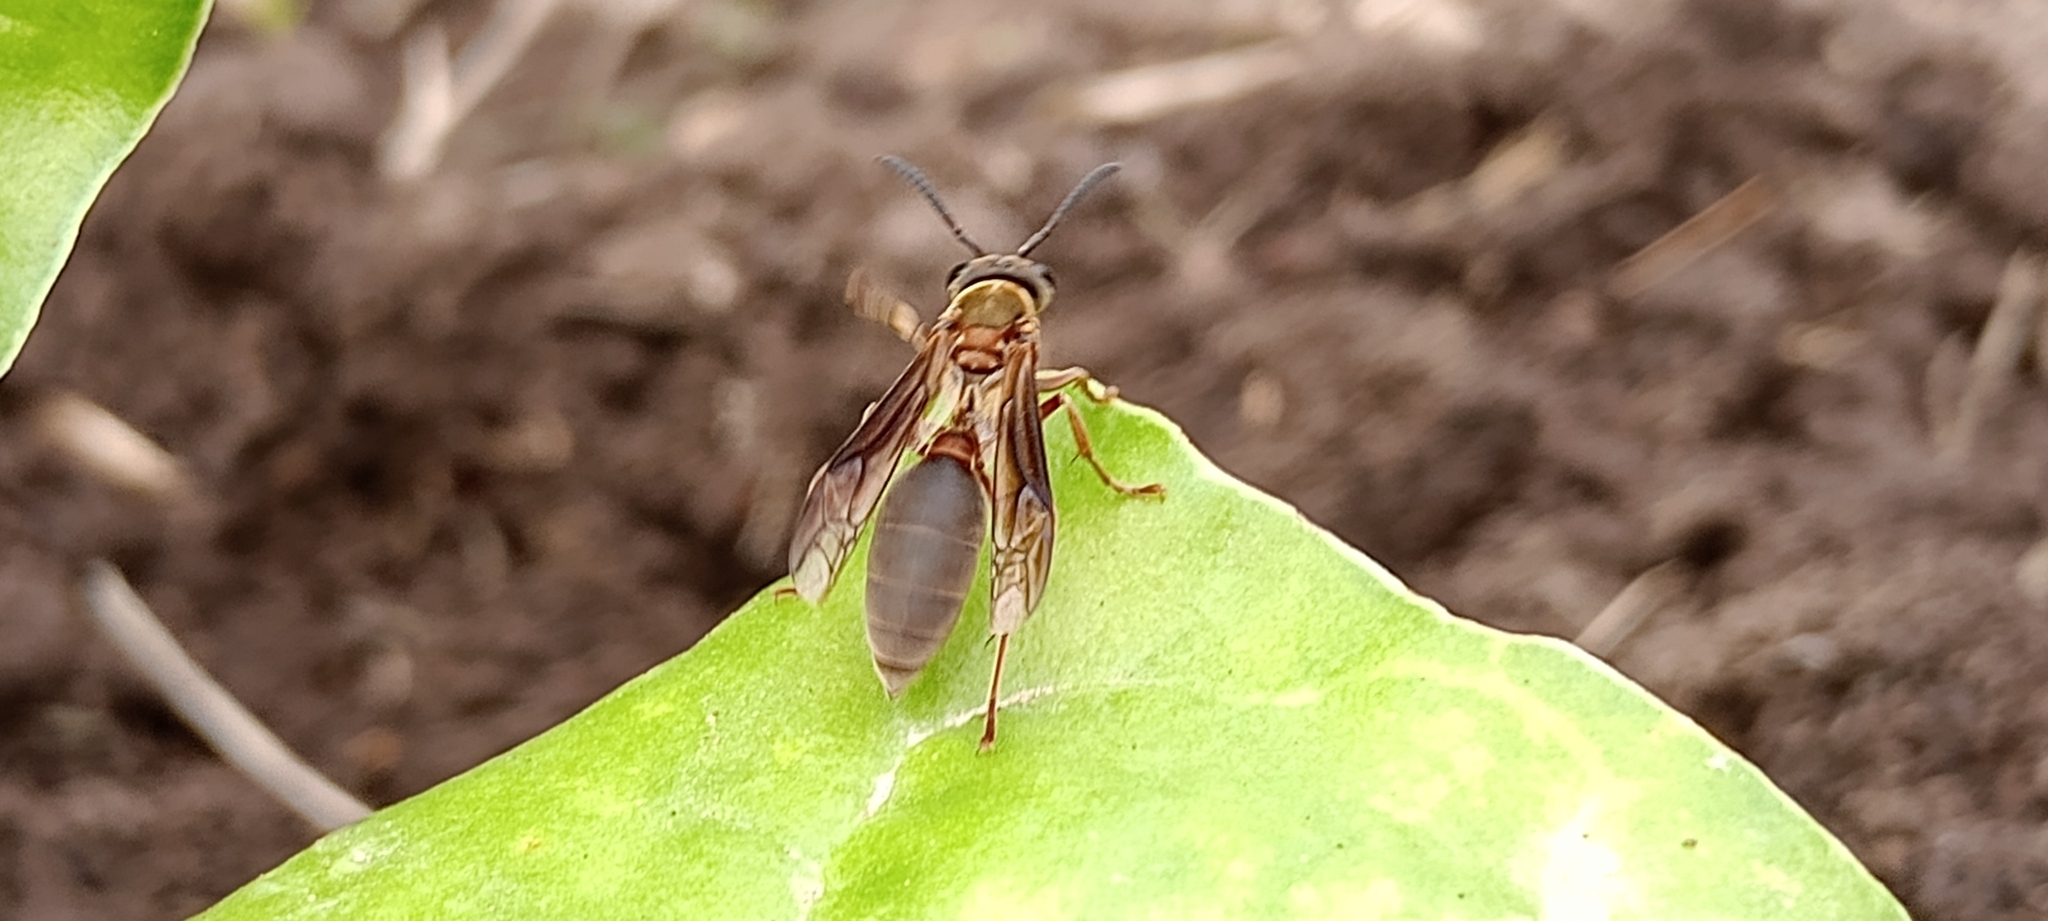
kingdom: Animalia
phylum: Arthropoda
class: Insecta
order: Hymenoptera
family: Eumenidae
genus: Polybia
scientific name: Polybia sericea
